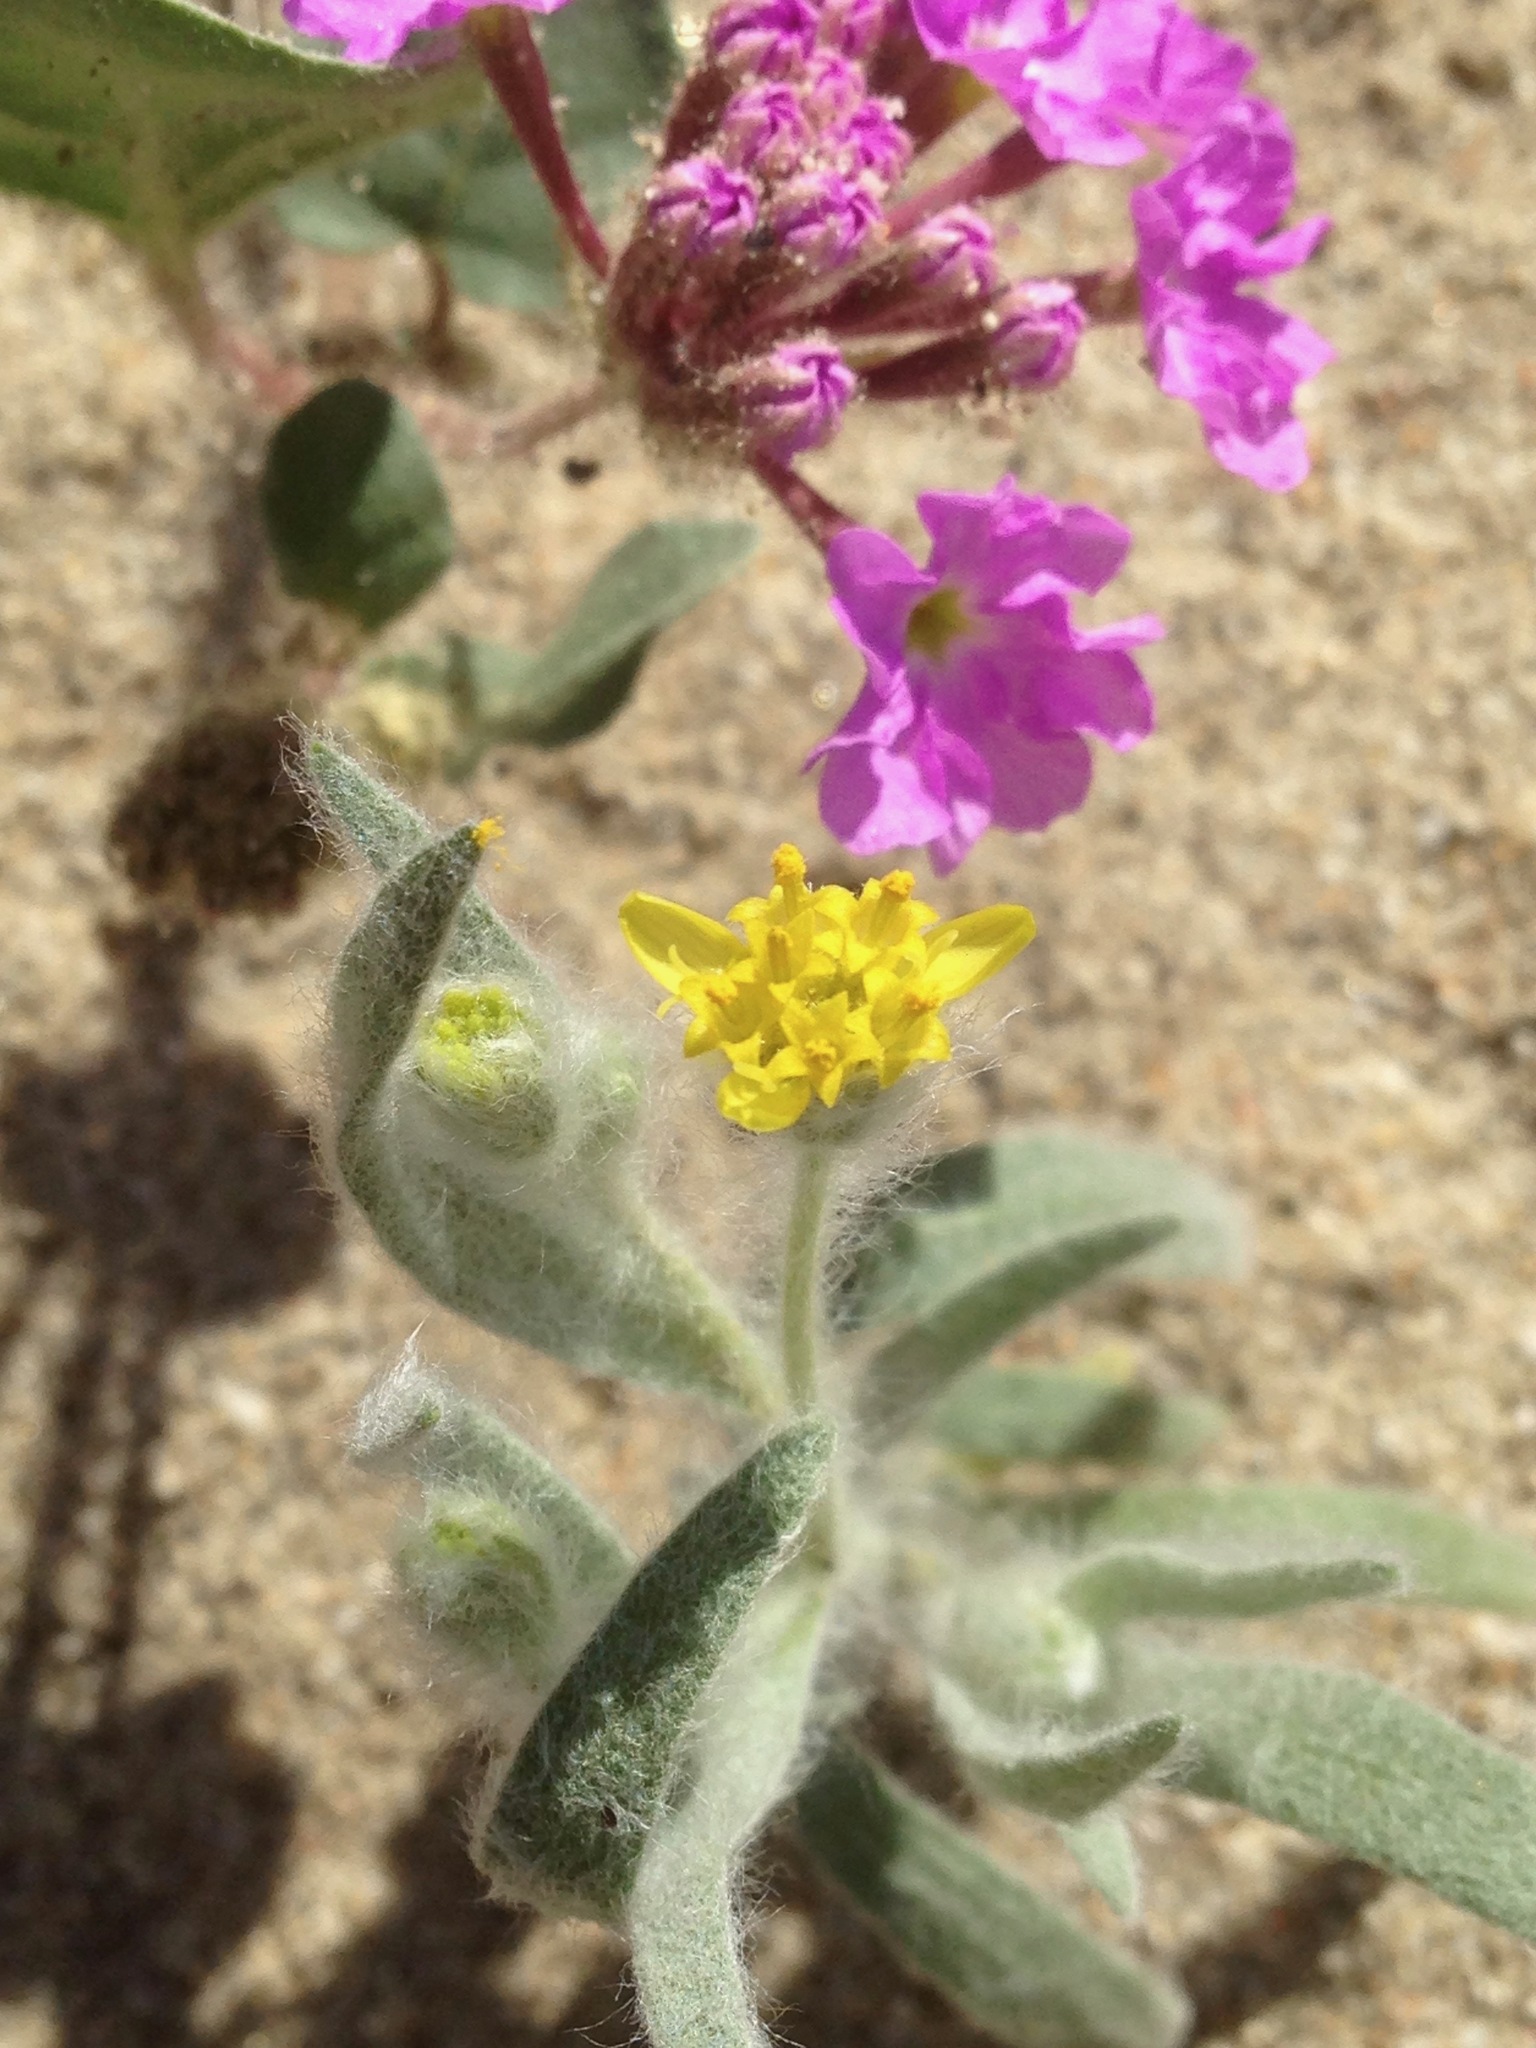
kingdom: Plantae
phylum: Tracheophyta
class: Magnoliopsida
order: Asterales
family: Asteraceae
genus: Baileya
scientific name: Baileya pauciradiata
